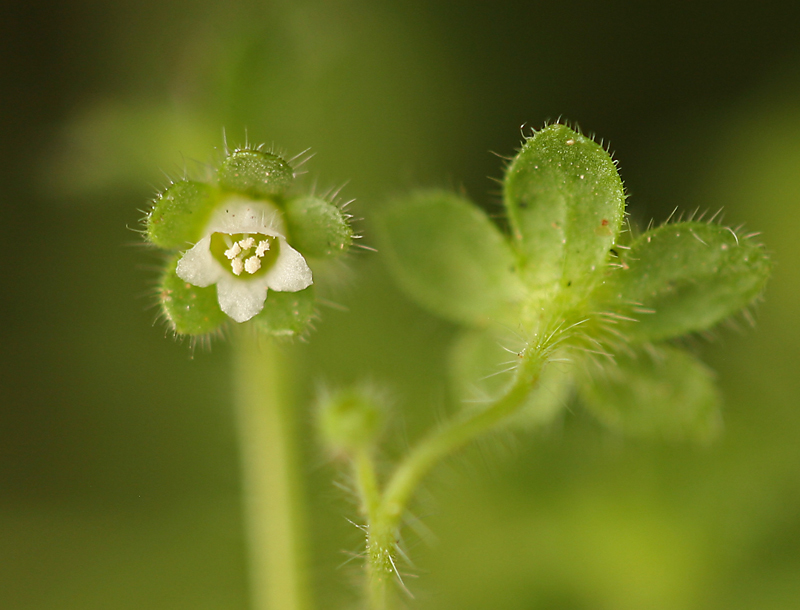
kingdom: Plantae
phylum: Tracheophyta
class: Magnoliopsida
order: Boraginales
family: Hydrophyllaceae
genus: Eucrypta
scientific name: Eucrypta chrysanthemifolia
